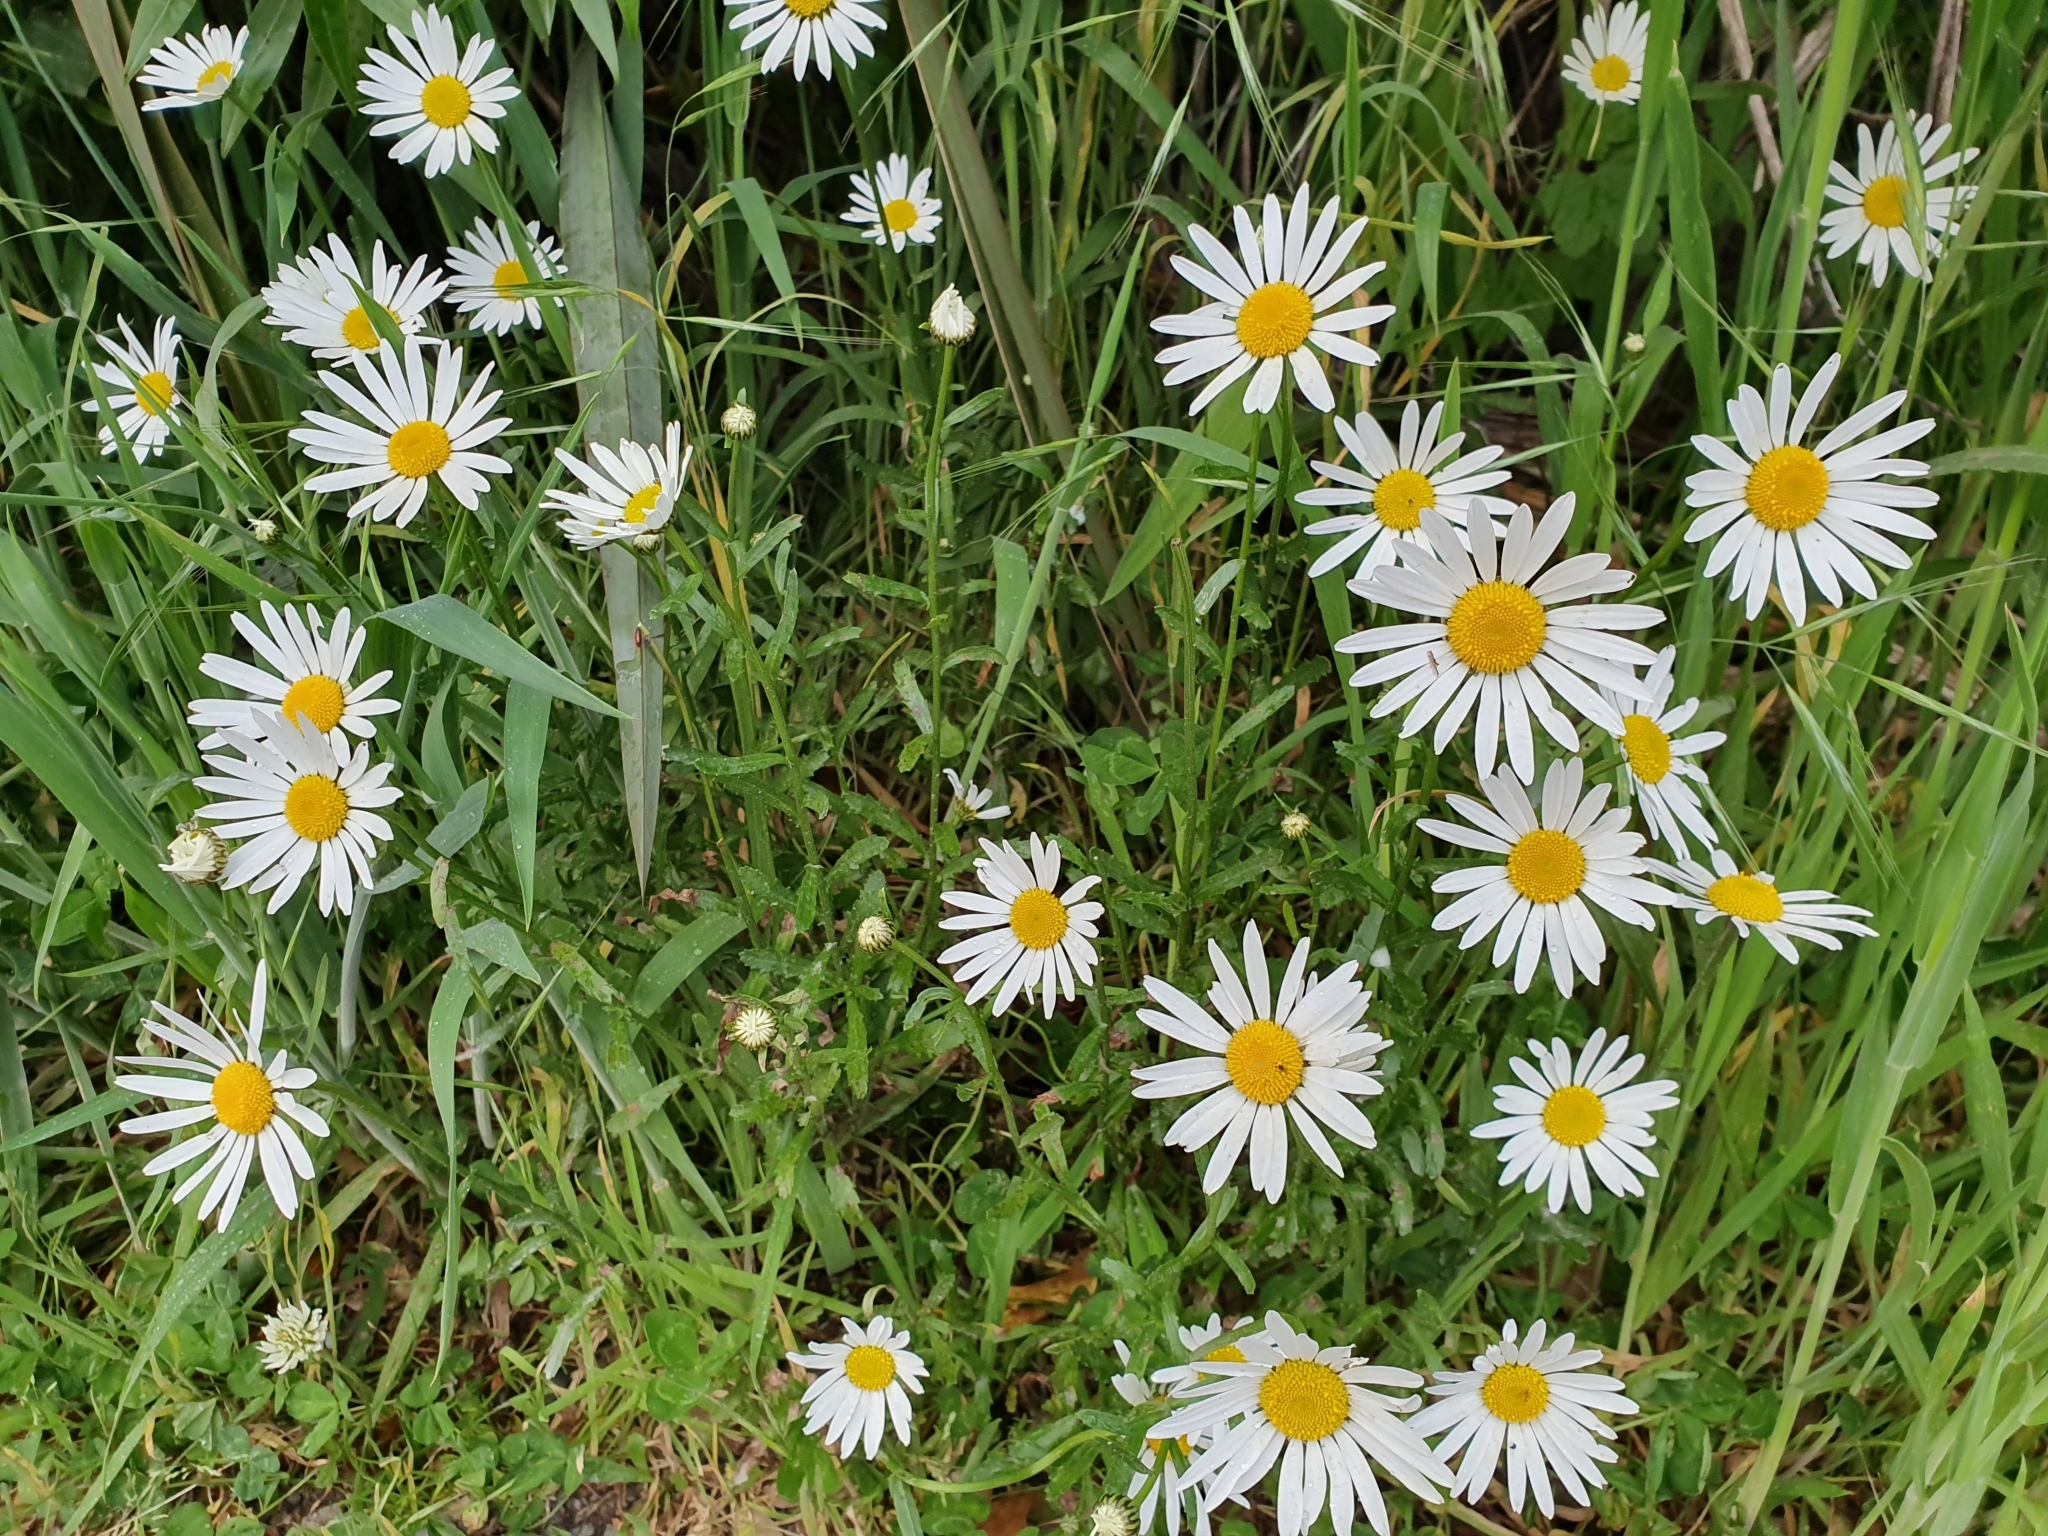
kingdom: Plantae
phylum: Tracheophyta
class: Magnoliopsida
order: Asterales
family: Asteraceae
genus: Leucanthemum
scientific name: Leucanthemum vulgare
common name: Oxeye daisy
